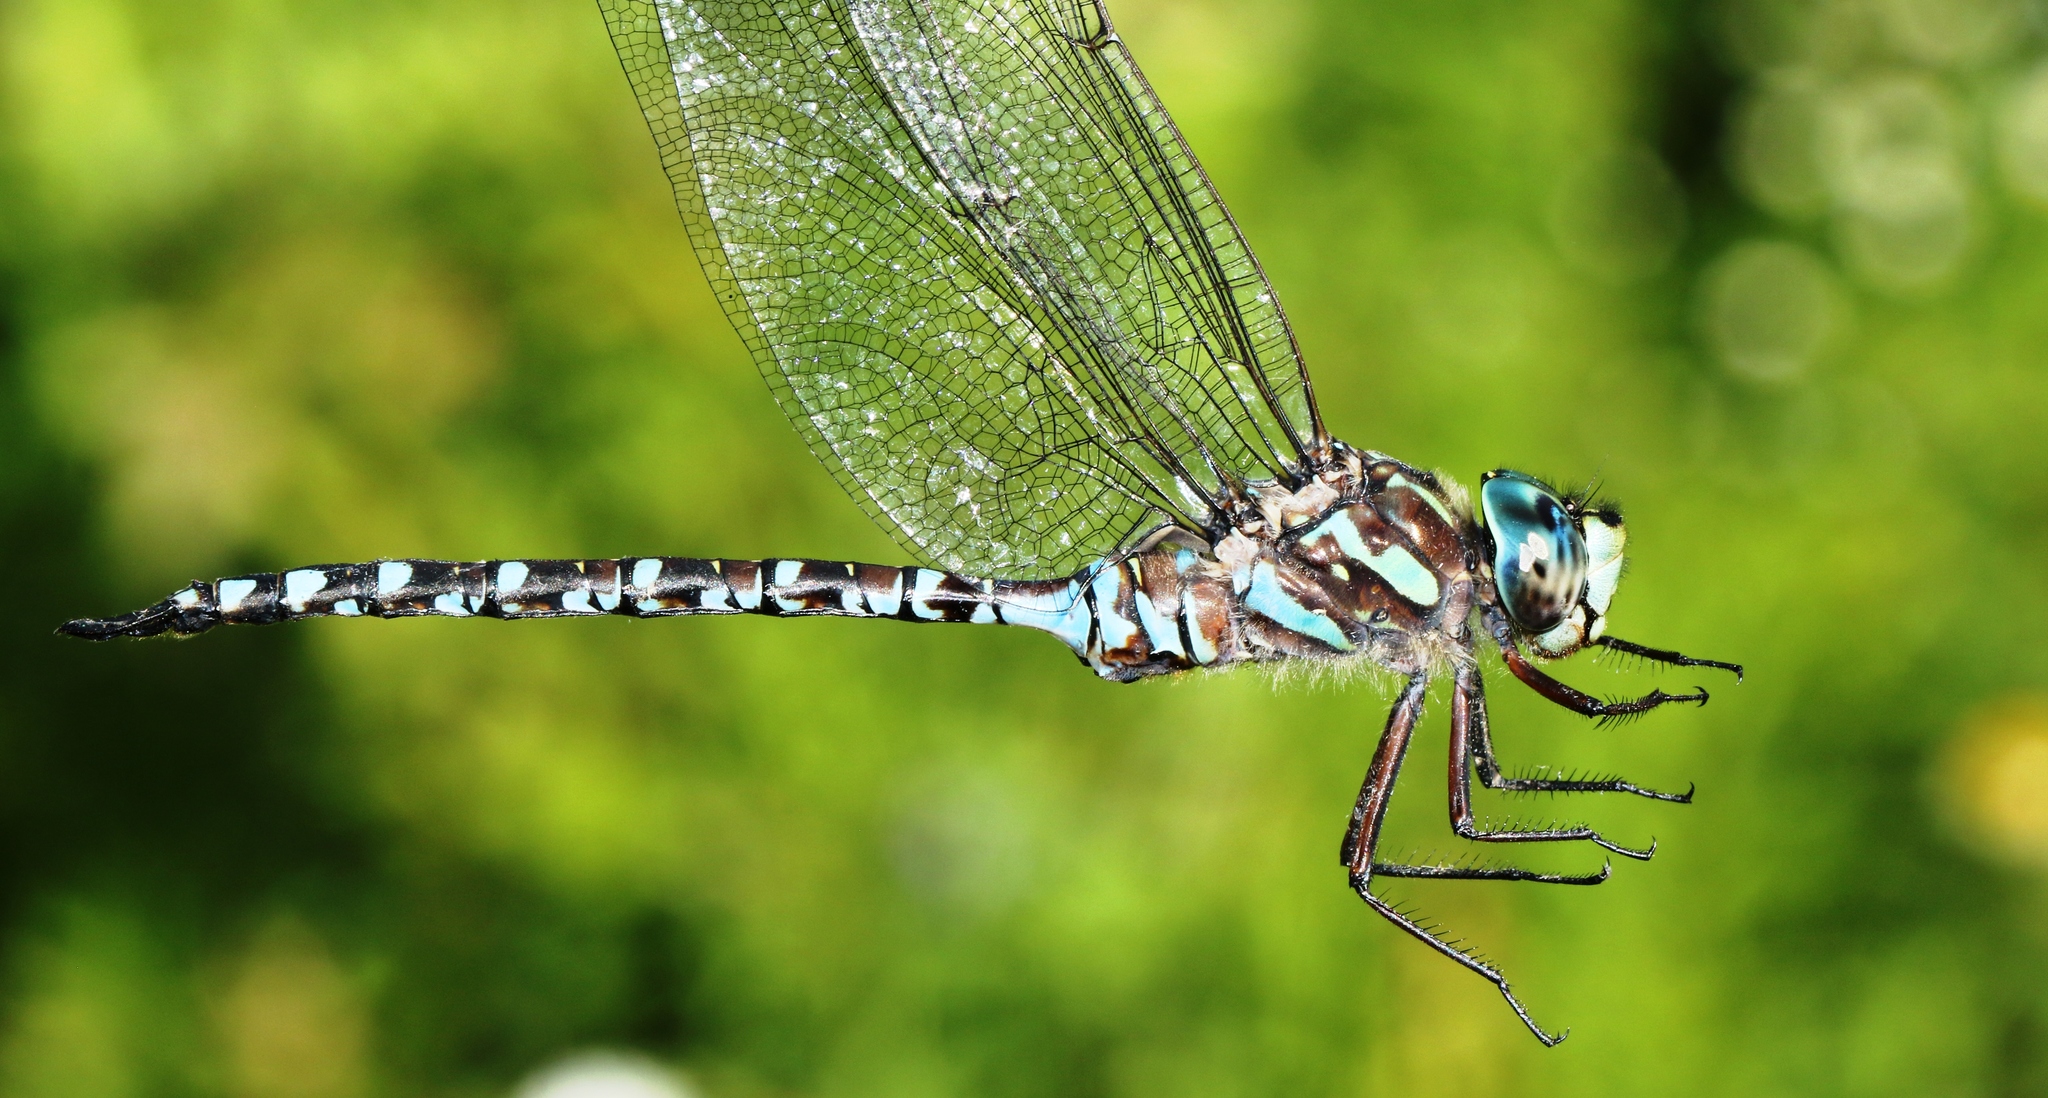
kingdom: Animalia
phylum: Arthropoda
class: Insecta
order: Odonata
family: Aeshnidae
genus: Aeshna
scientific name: Aeshna canadensis
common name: Canada darner
